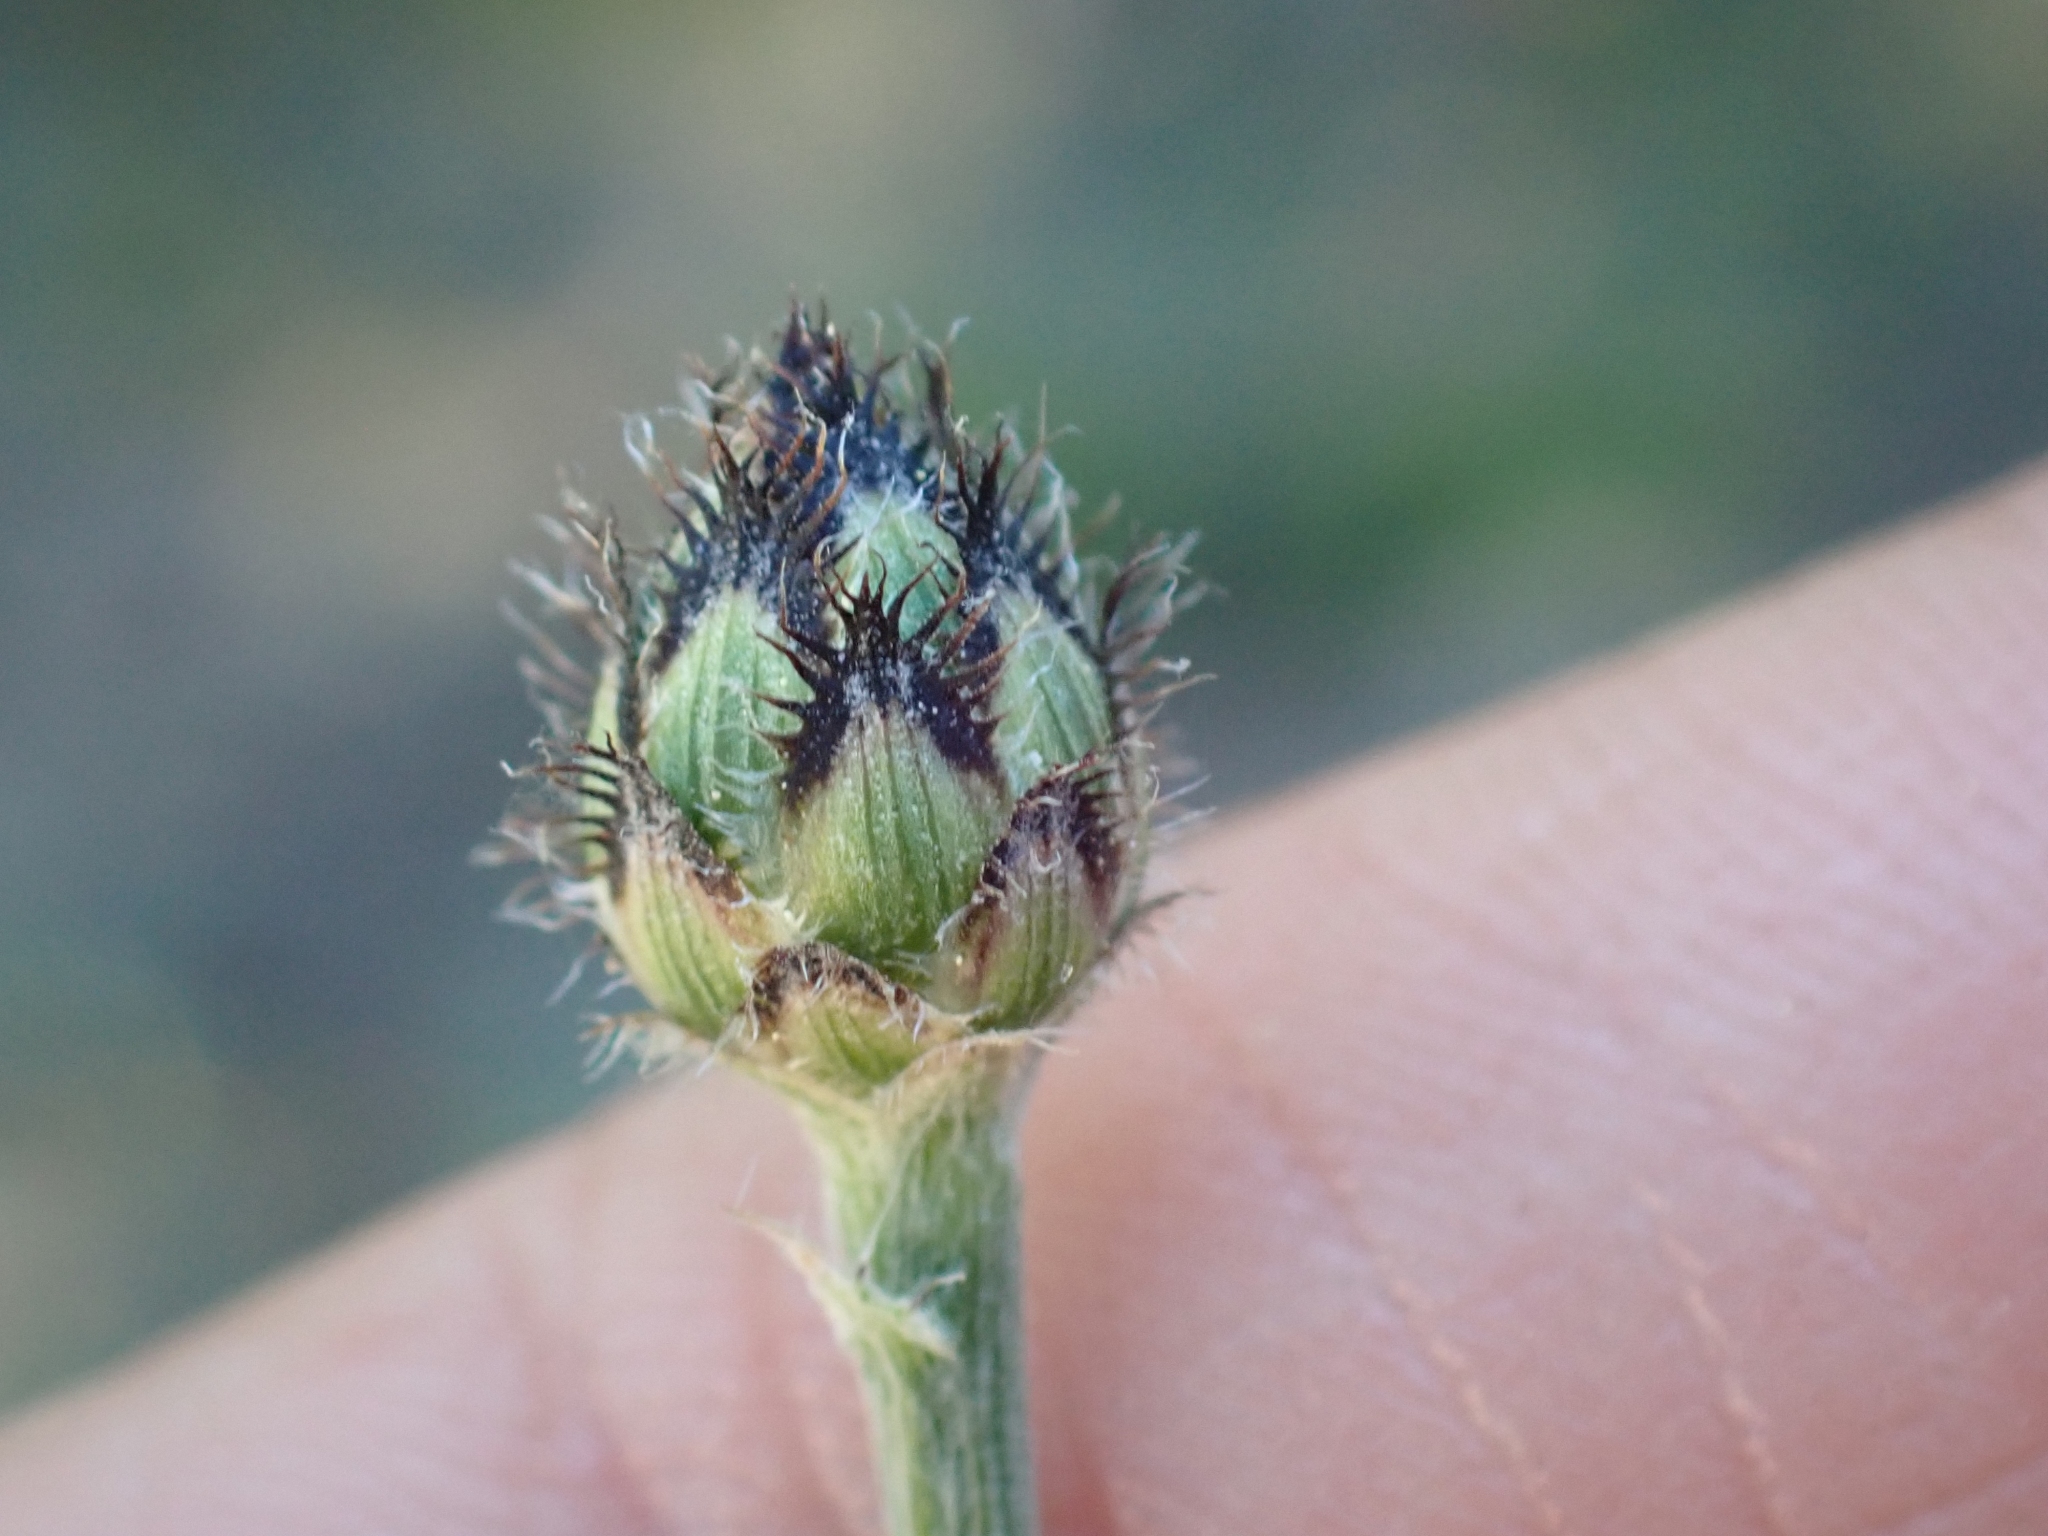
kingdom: Plantae
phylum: Tracheophyta
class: Magnoliopsida
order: Asterales
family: Asteraceae
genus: Centaurea
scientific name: Centaurea stoebe
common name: Spotted knapweed
